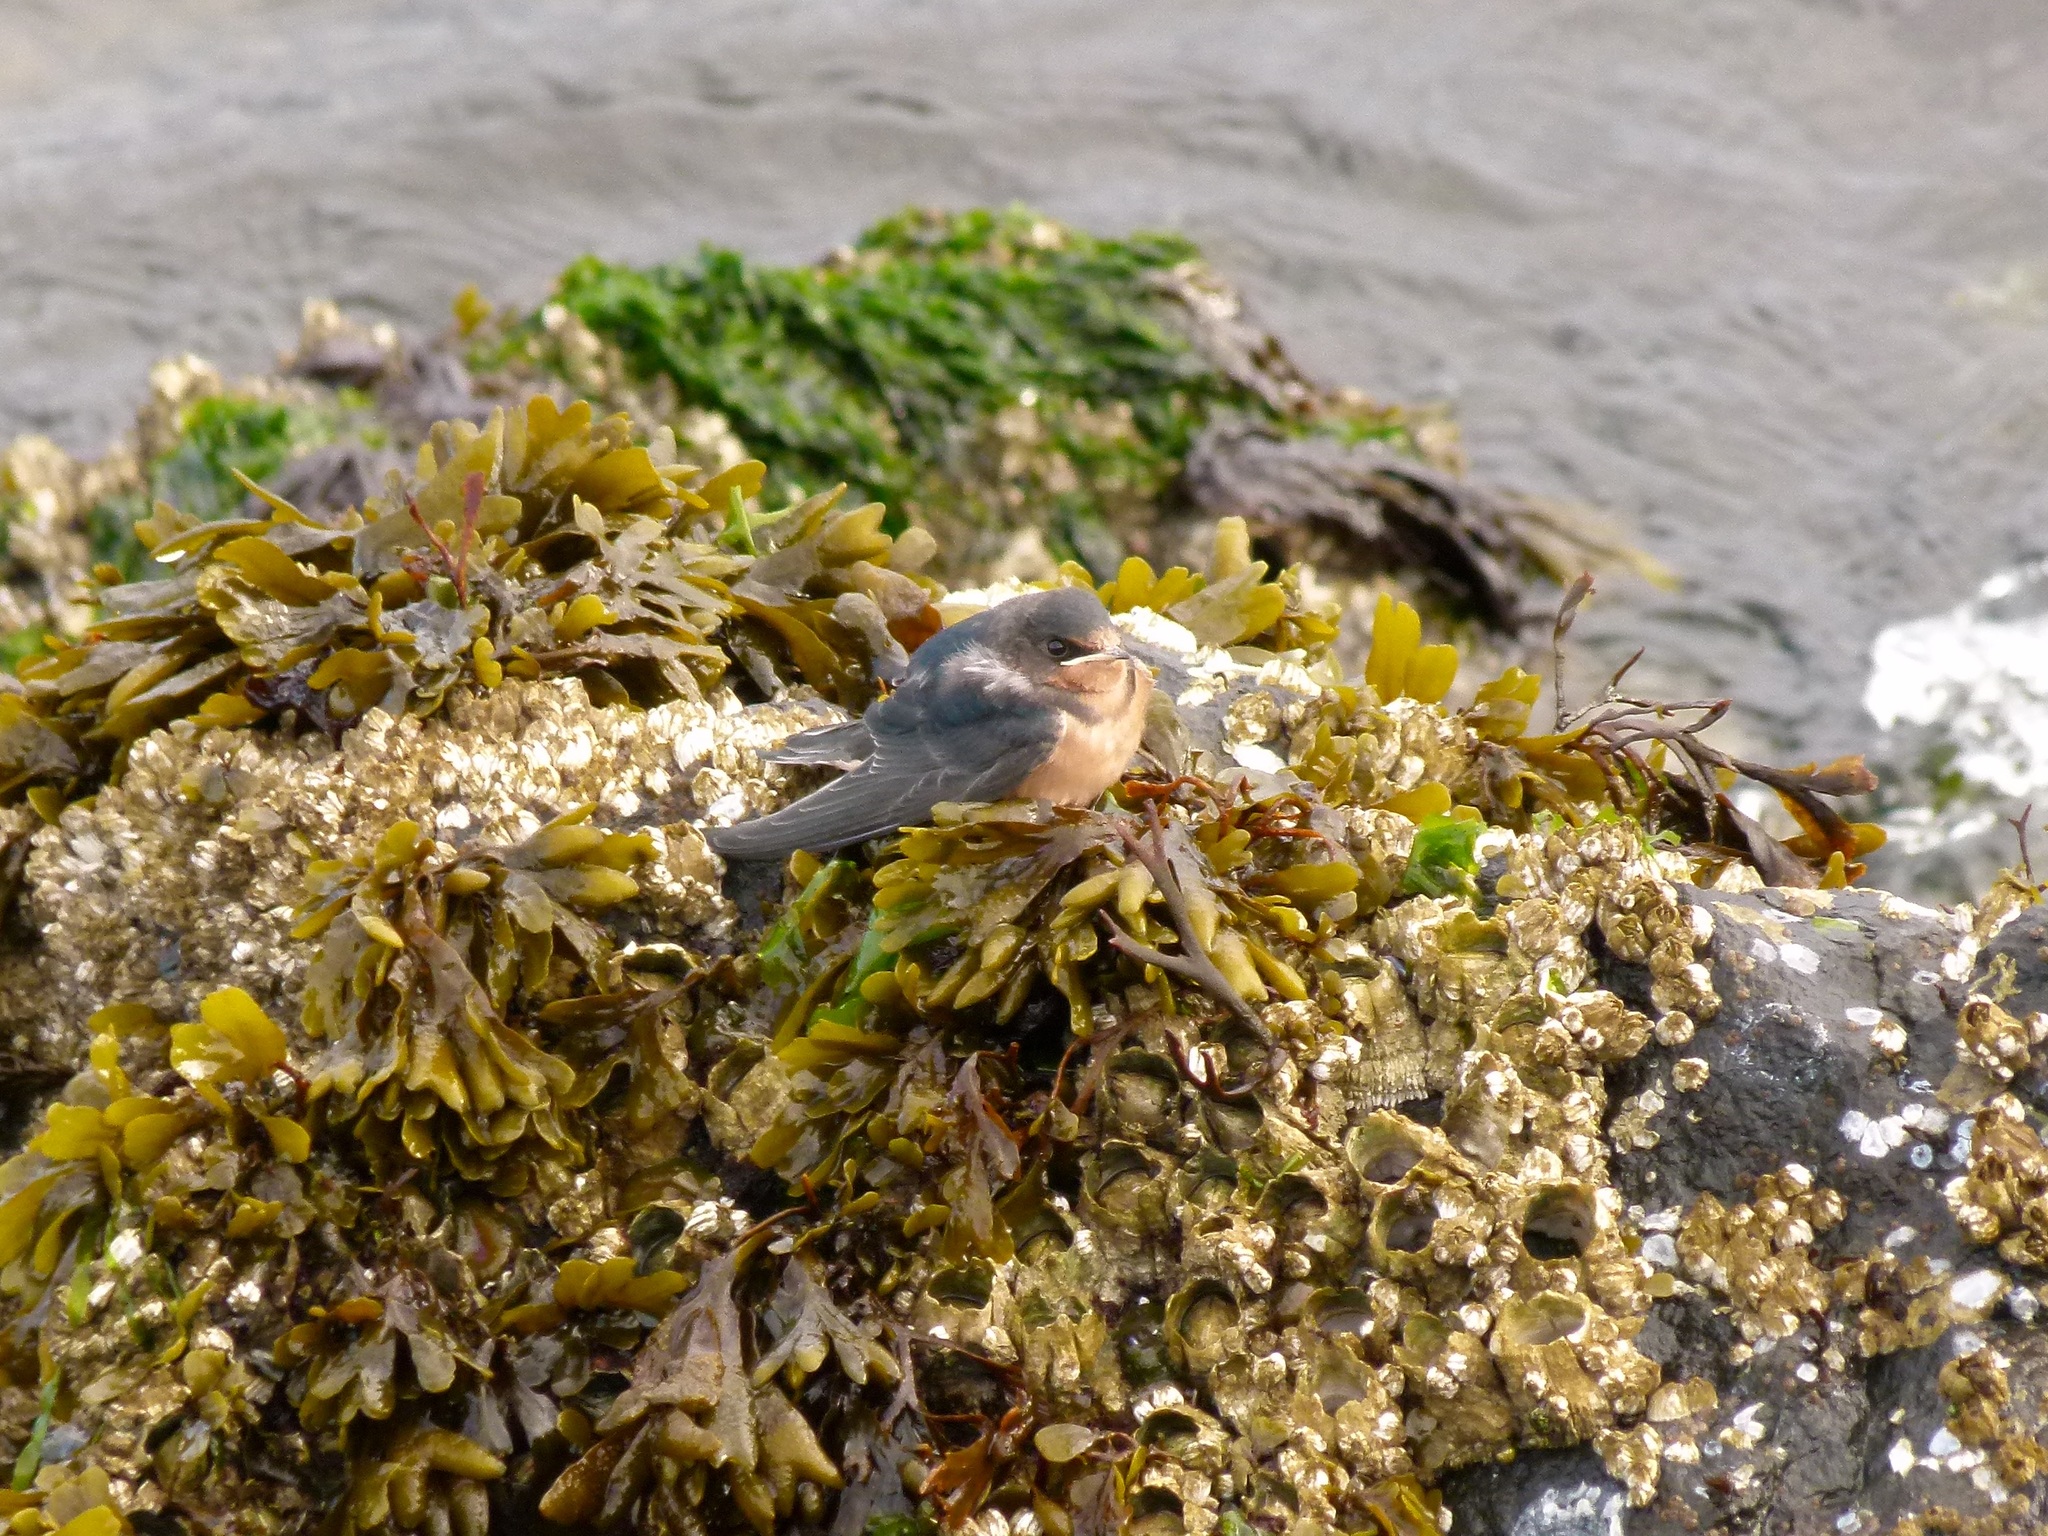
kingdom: Animalia
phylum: Chordata
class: Aves
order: Passeriformes
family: Hirundinidae
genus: Hirundo
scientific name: Hirundo rustica
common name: Barn swallow
